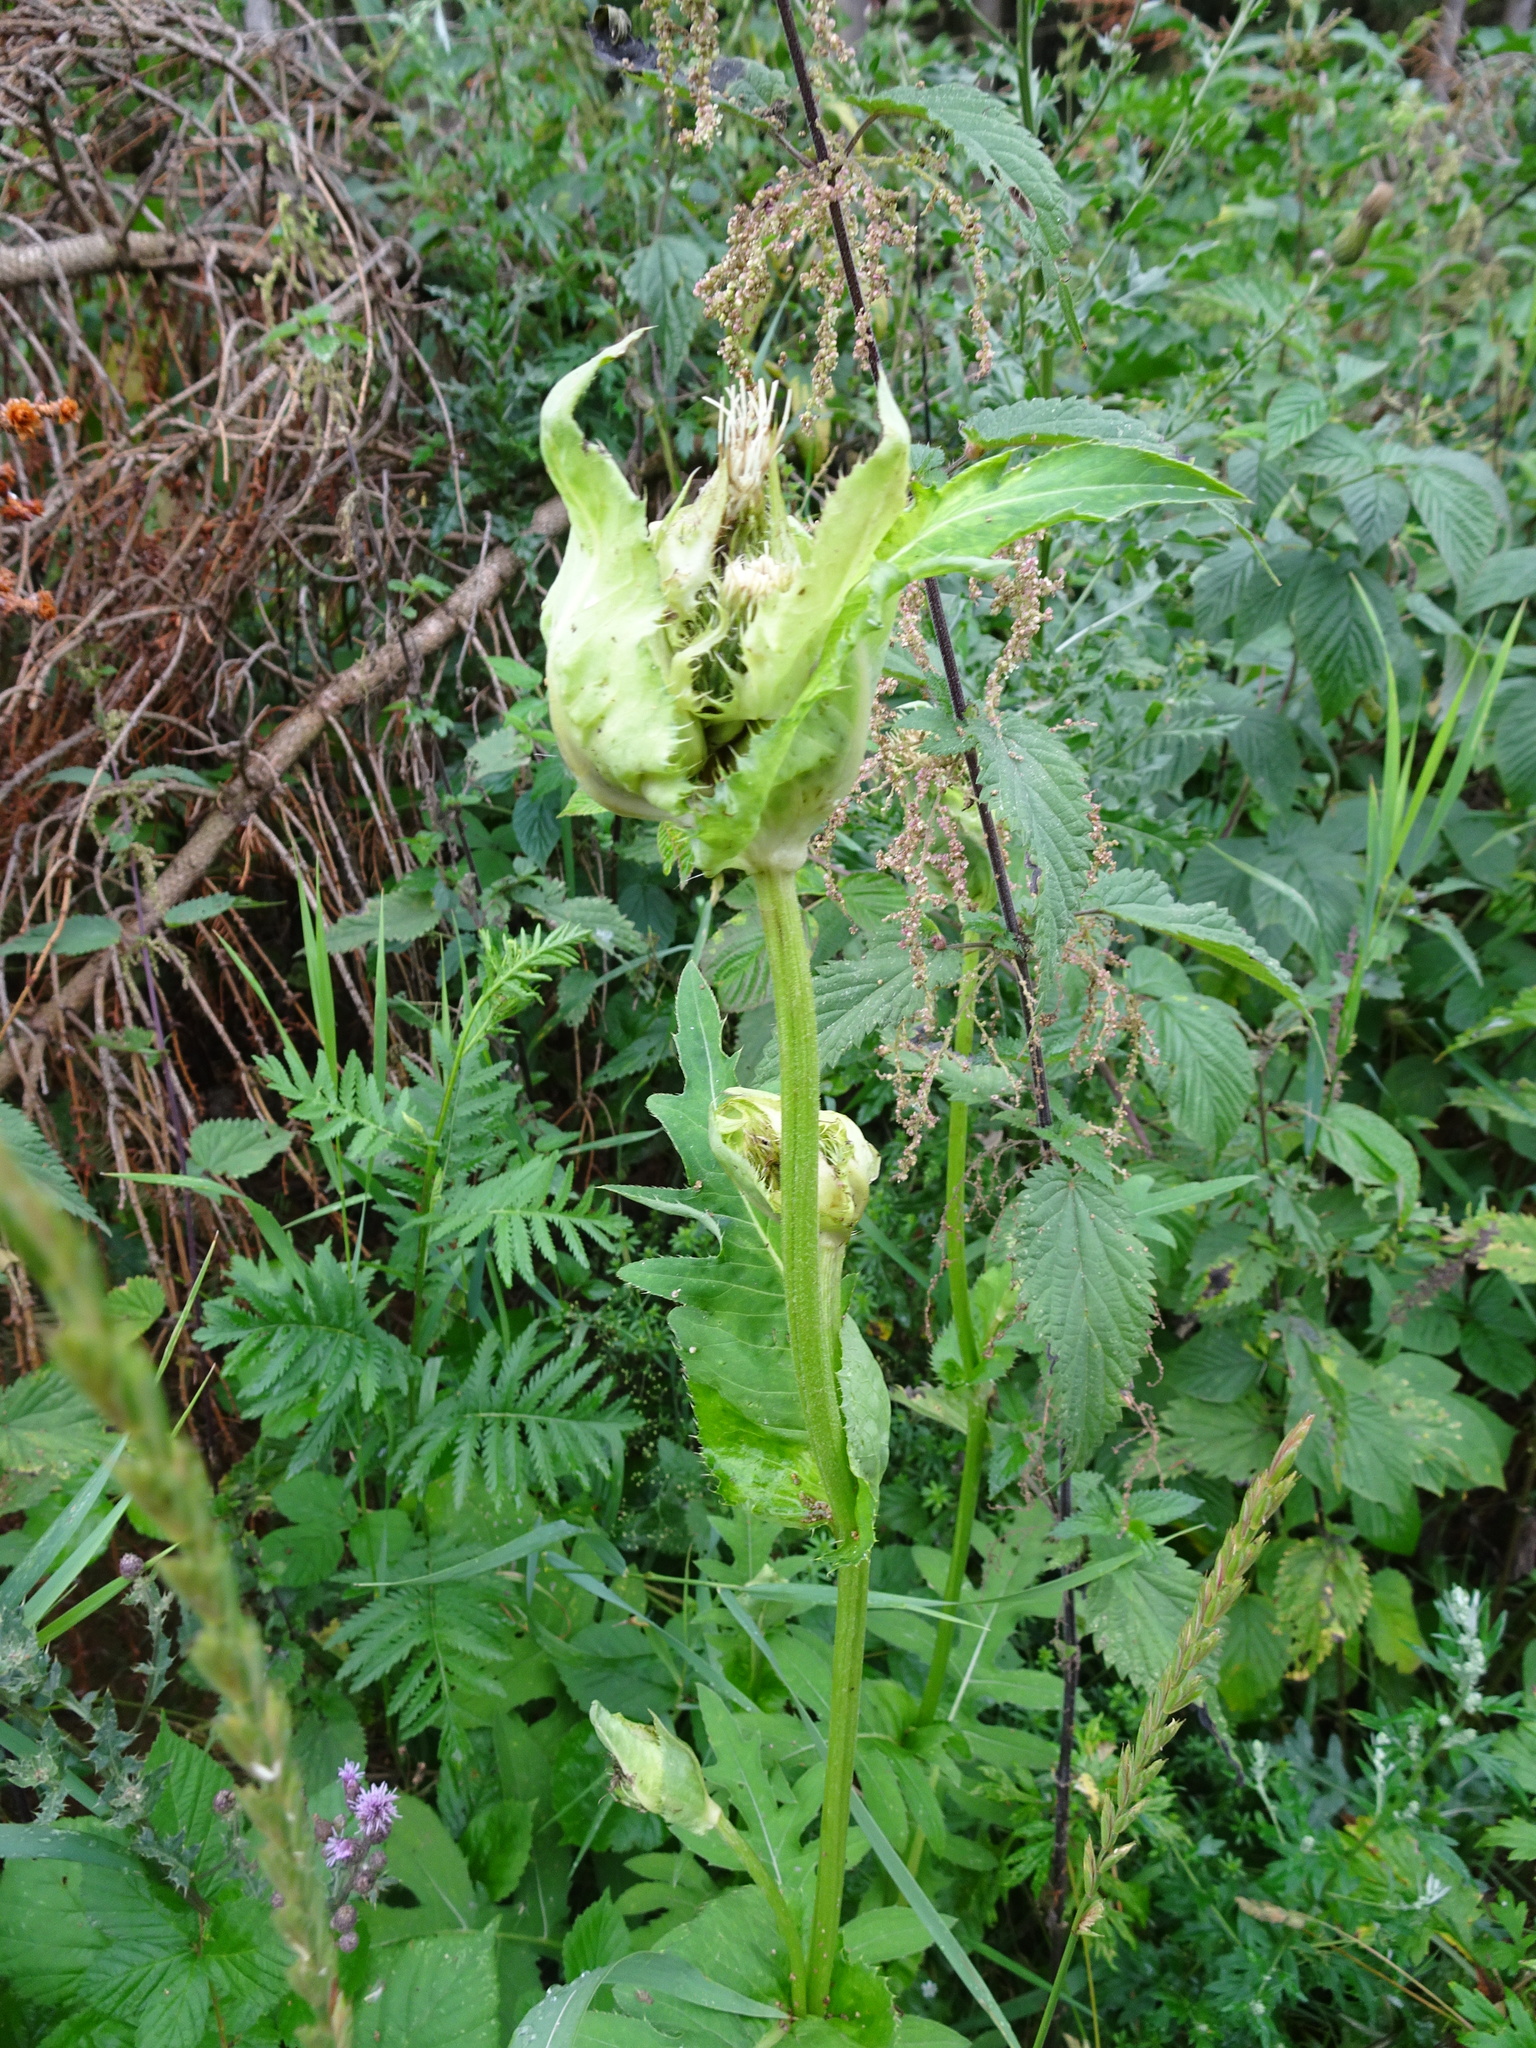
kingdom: Plantae
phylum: Tracheophyta
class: Magnoliopsida
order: Asterales
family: Asteraceae
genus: Cirsium
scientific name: Cirsium oleraceum
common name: Cabbage thistle
